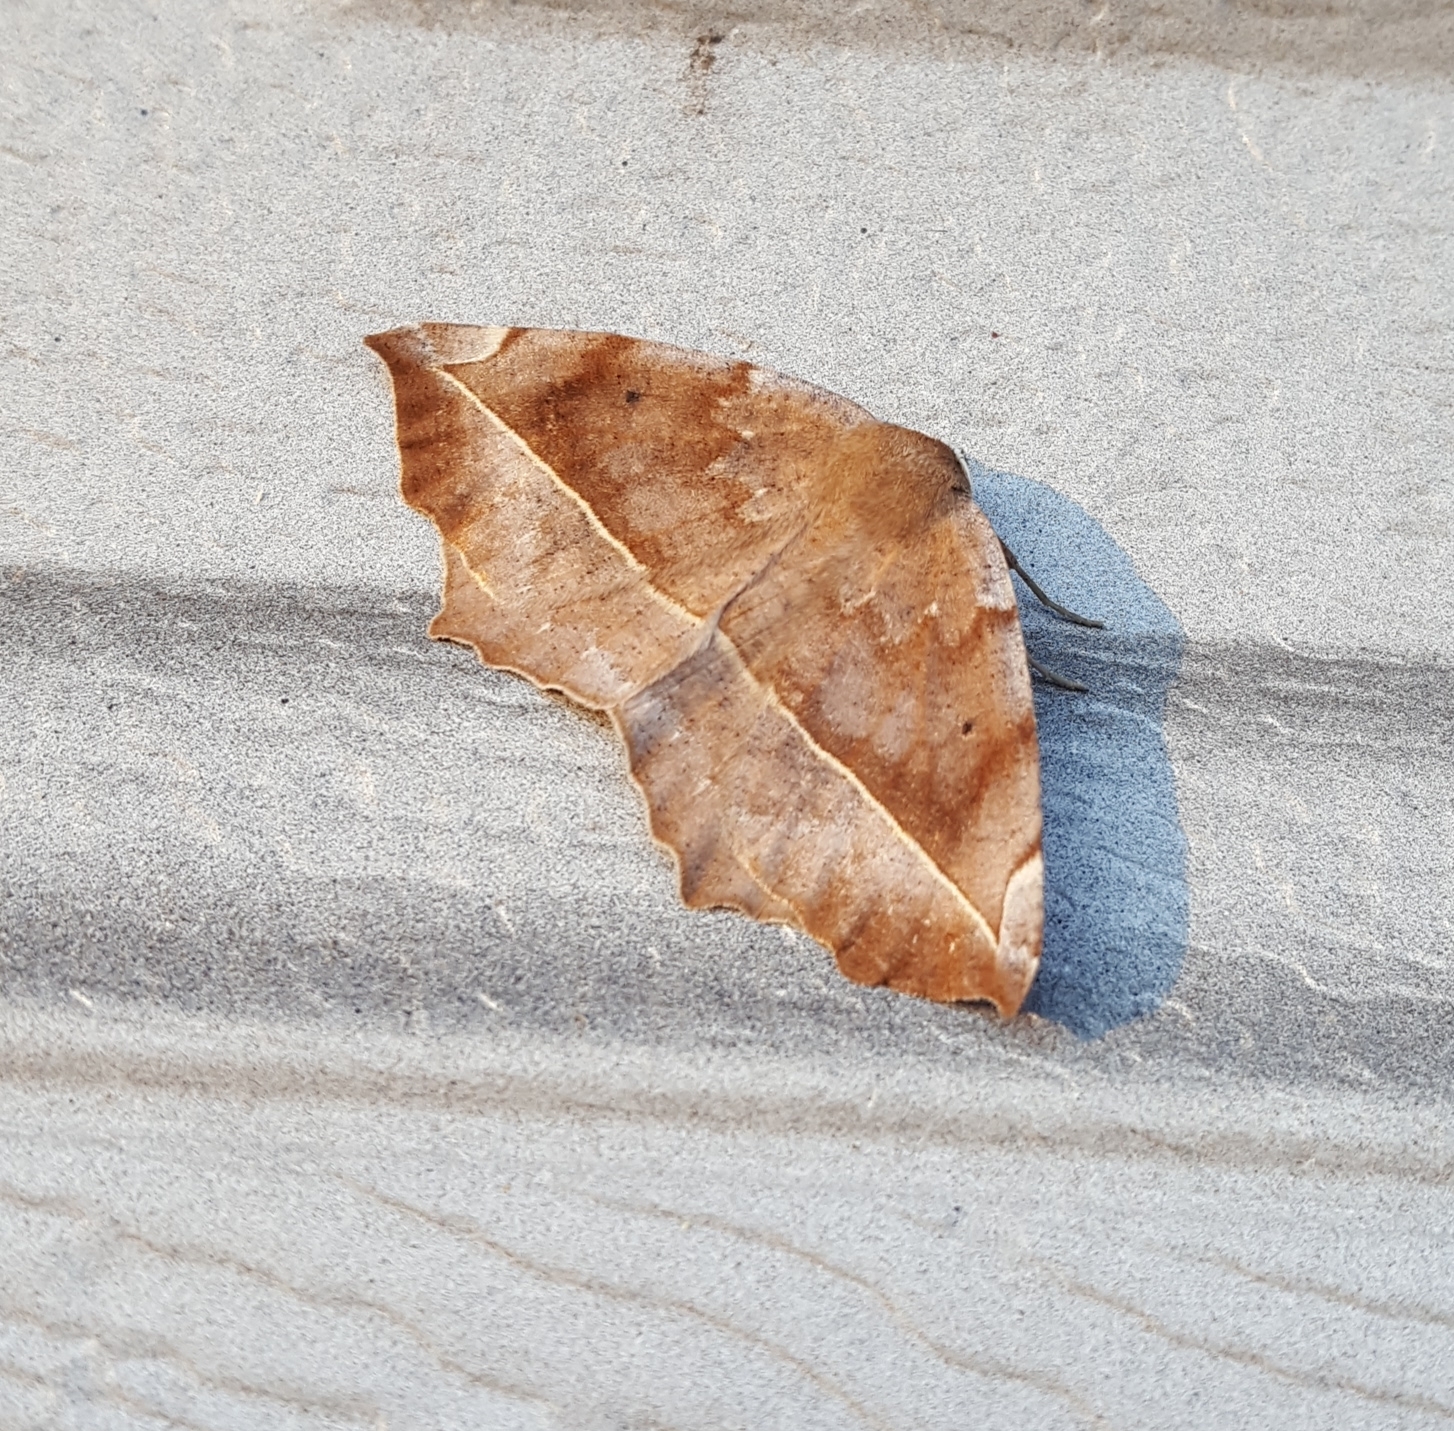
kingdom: Animalia
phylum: Arthropoda
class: Insecta
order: Lepidoptera
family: Geometridae
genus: Eutrapela
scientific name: Eutrapela clemataria
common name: Curved-toothed geometer
